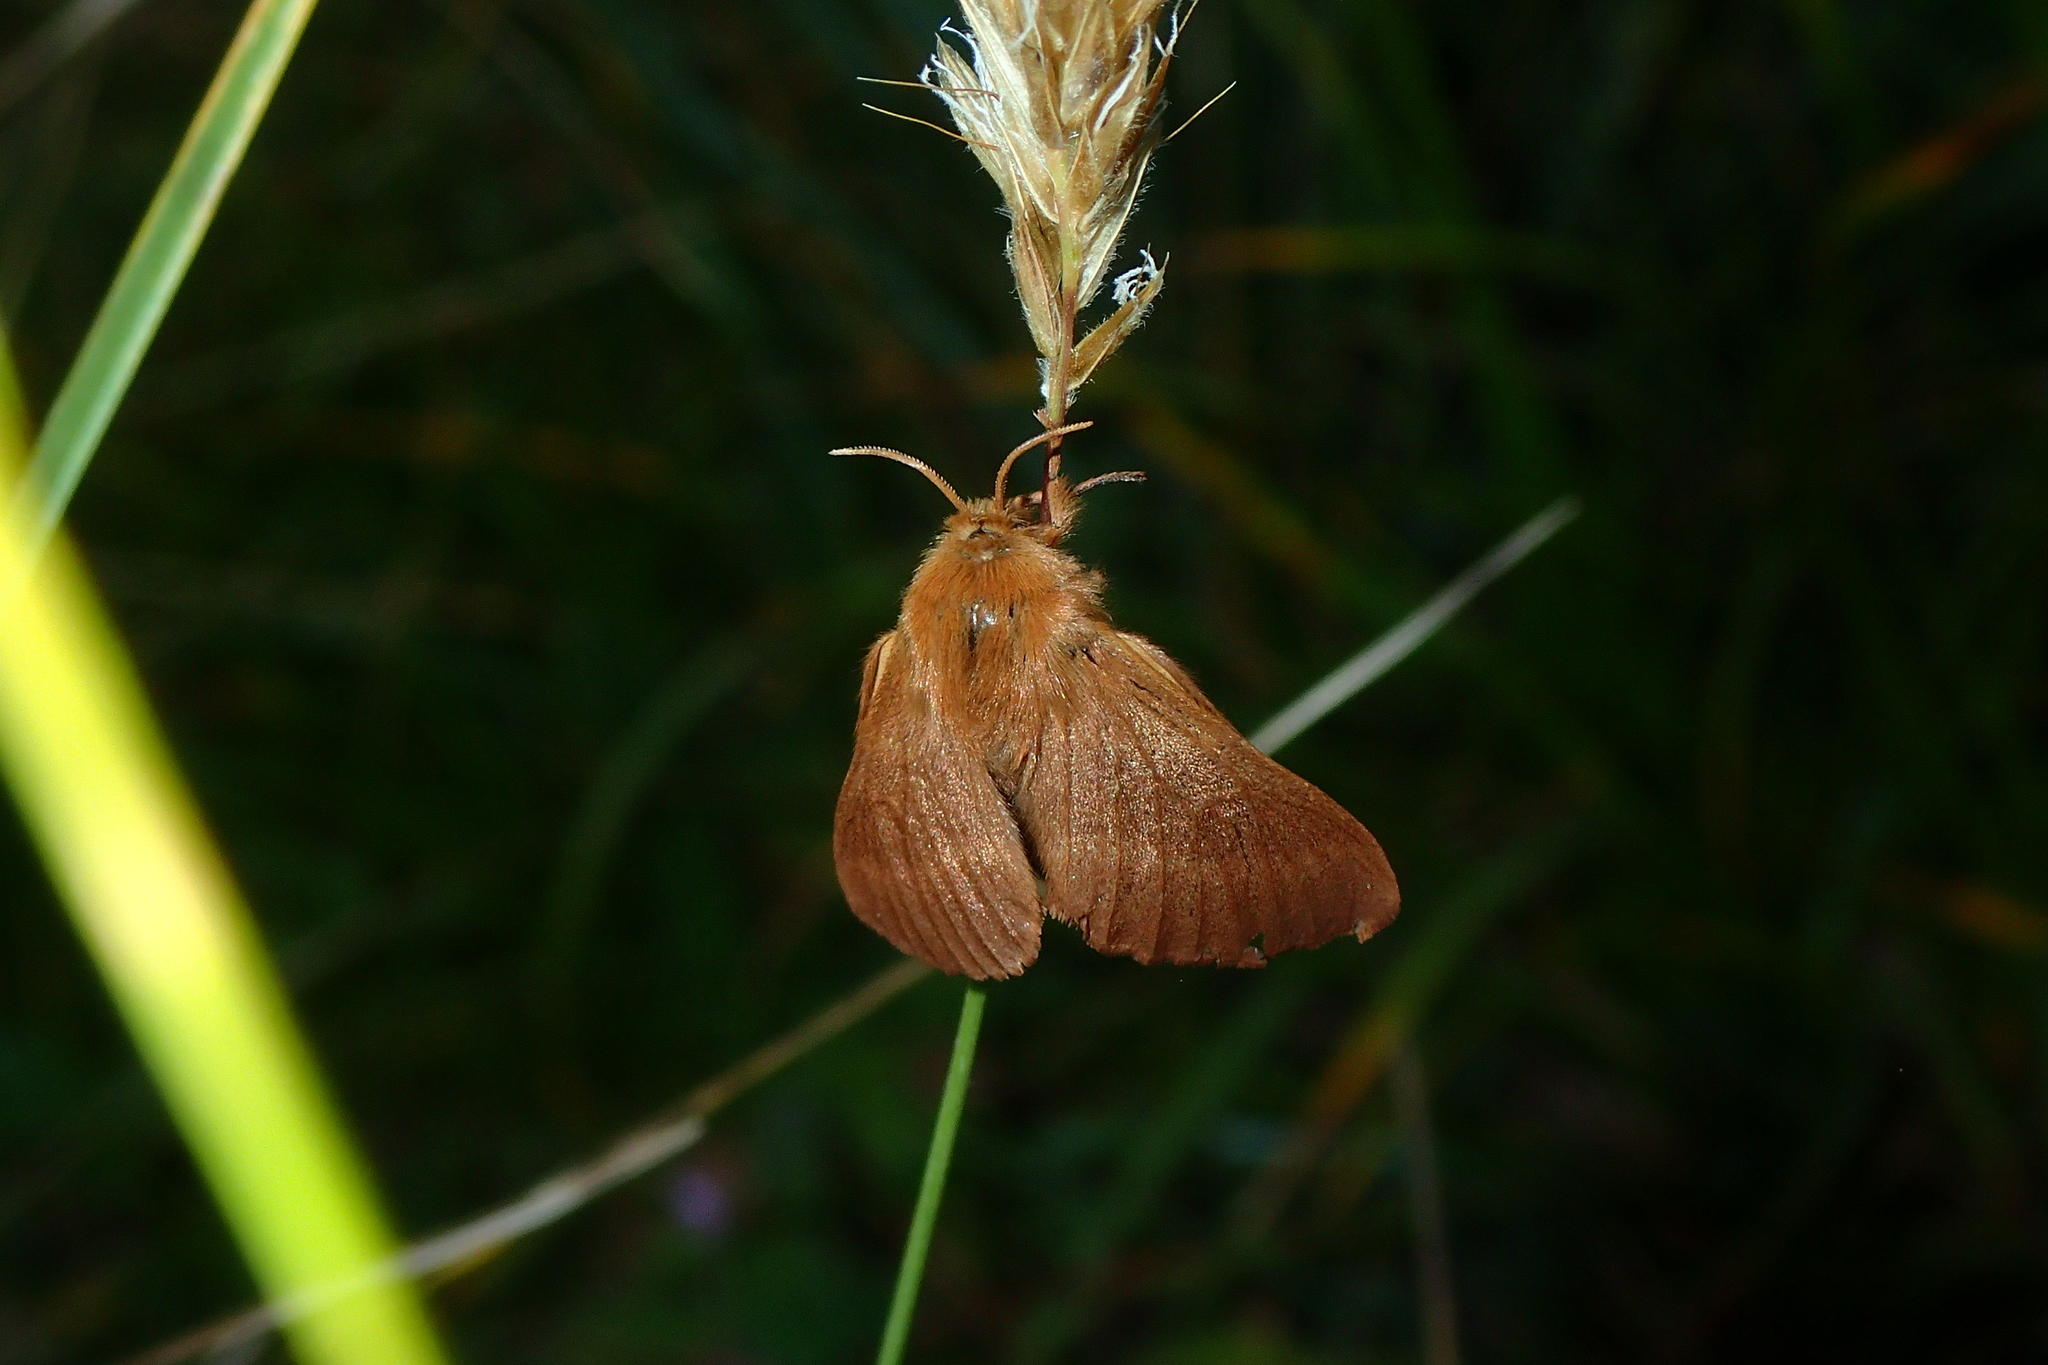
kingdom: Animalia
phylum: Arthropoda
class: Insecta
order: Lepidoptera
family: Lasiocampidae
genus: Malacosoma
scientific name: Malacosoma alpicola
